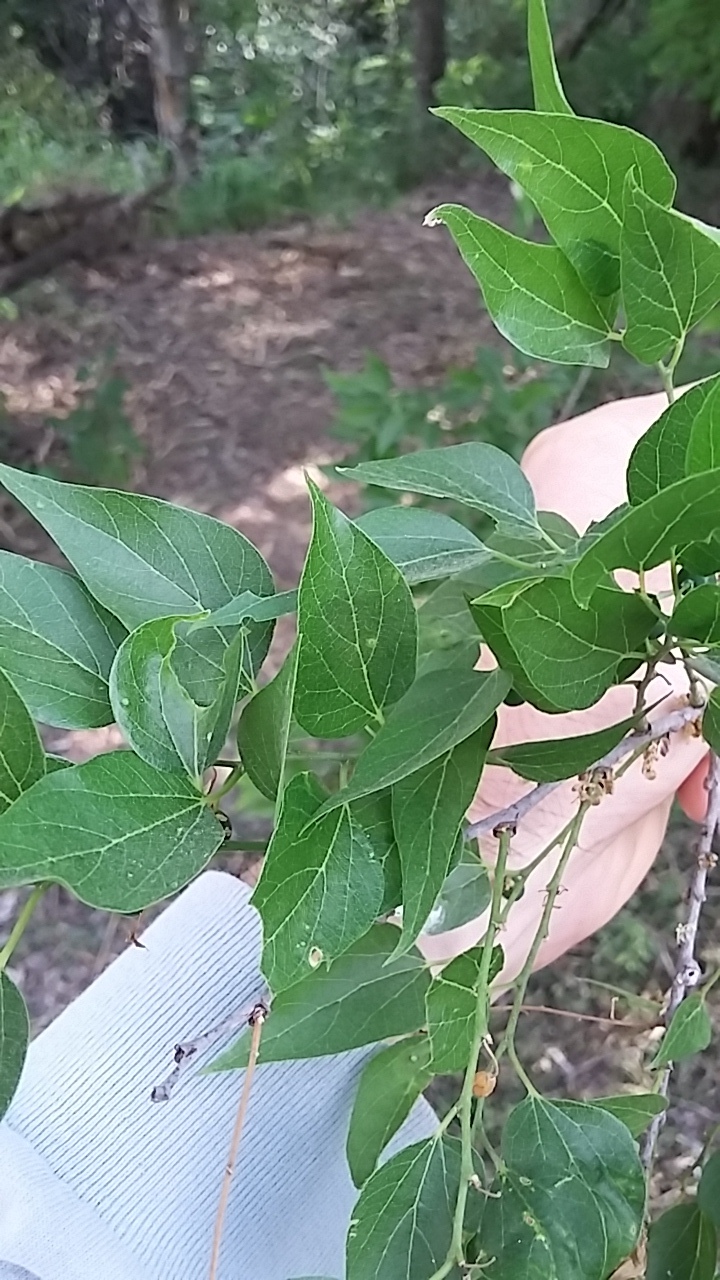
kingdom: Plantae
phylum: Tracheophyta
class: Magnoliopsida
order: Rosales
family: Cannabaceae
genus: Celtis
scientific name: Celtis laevigata
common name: Sugarberry
